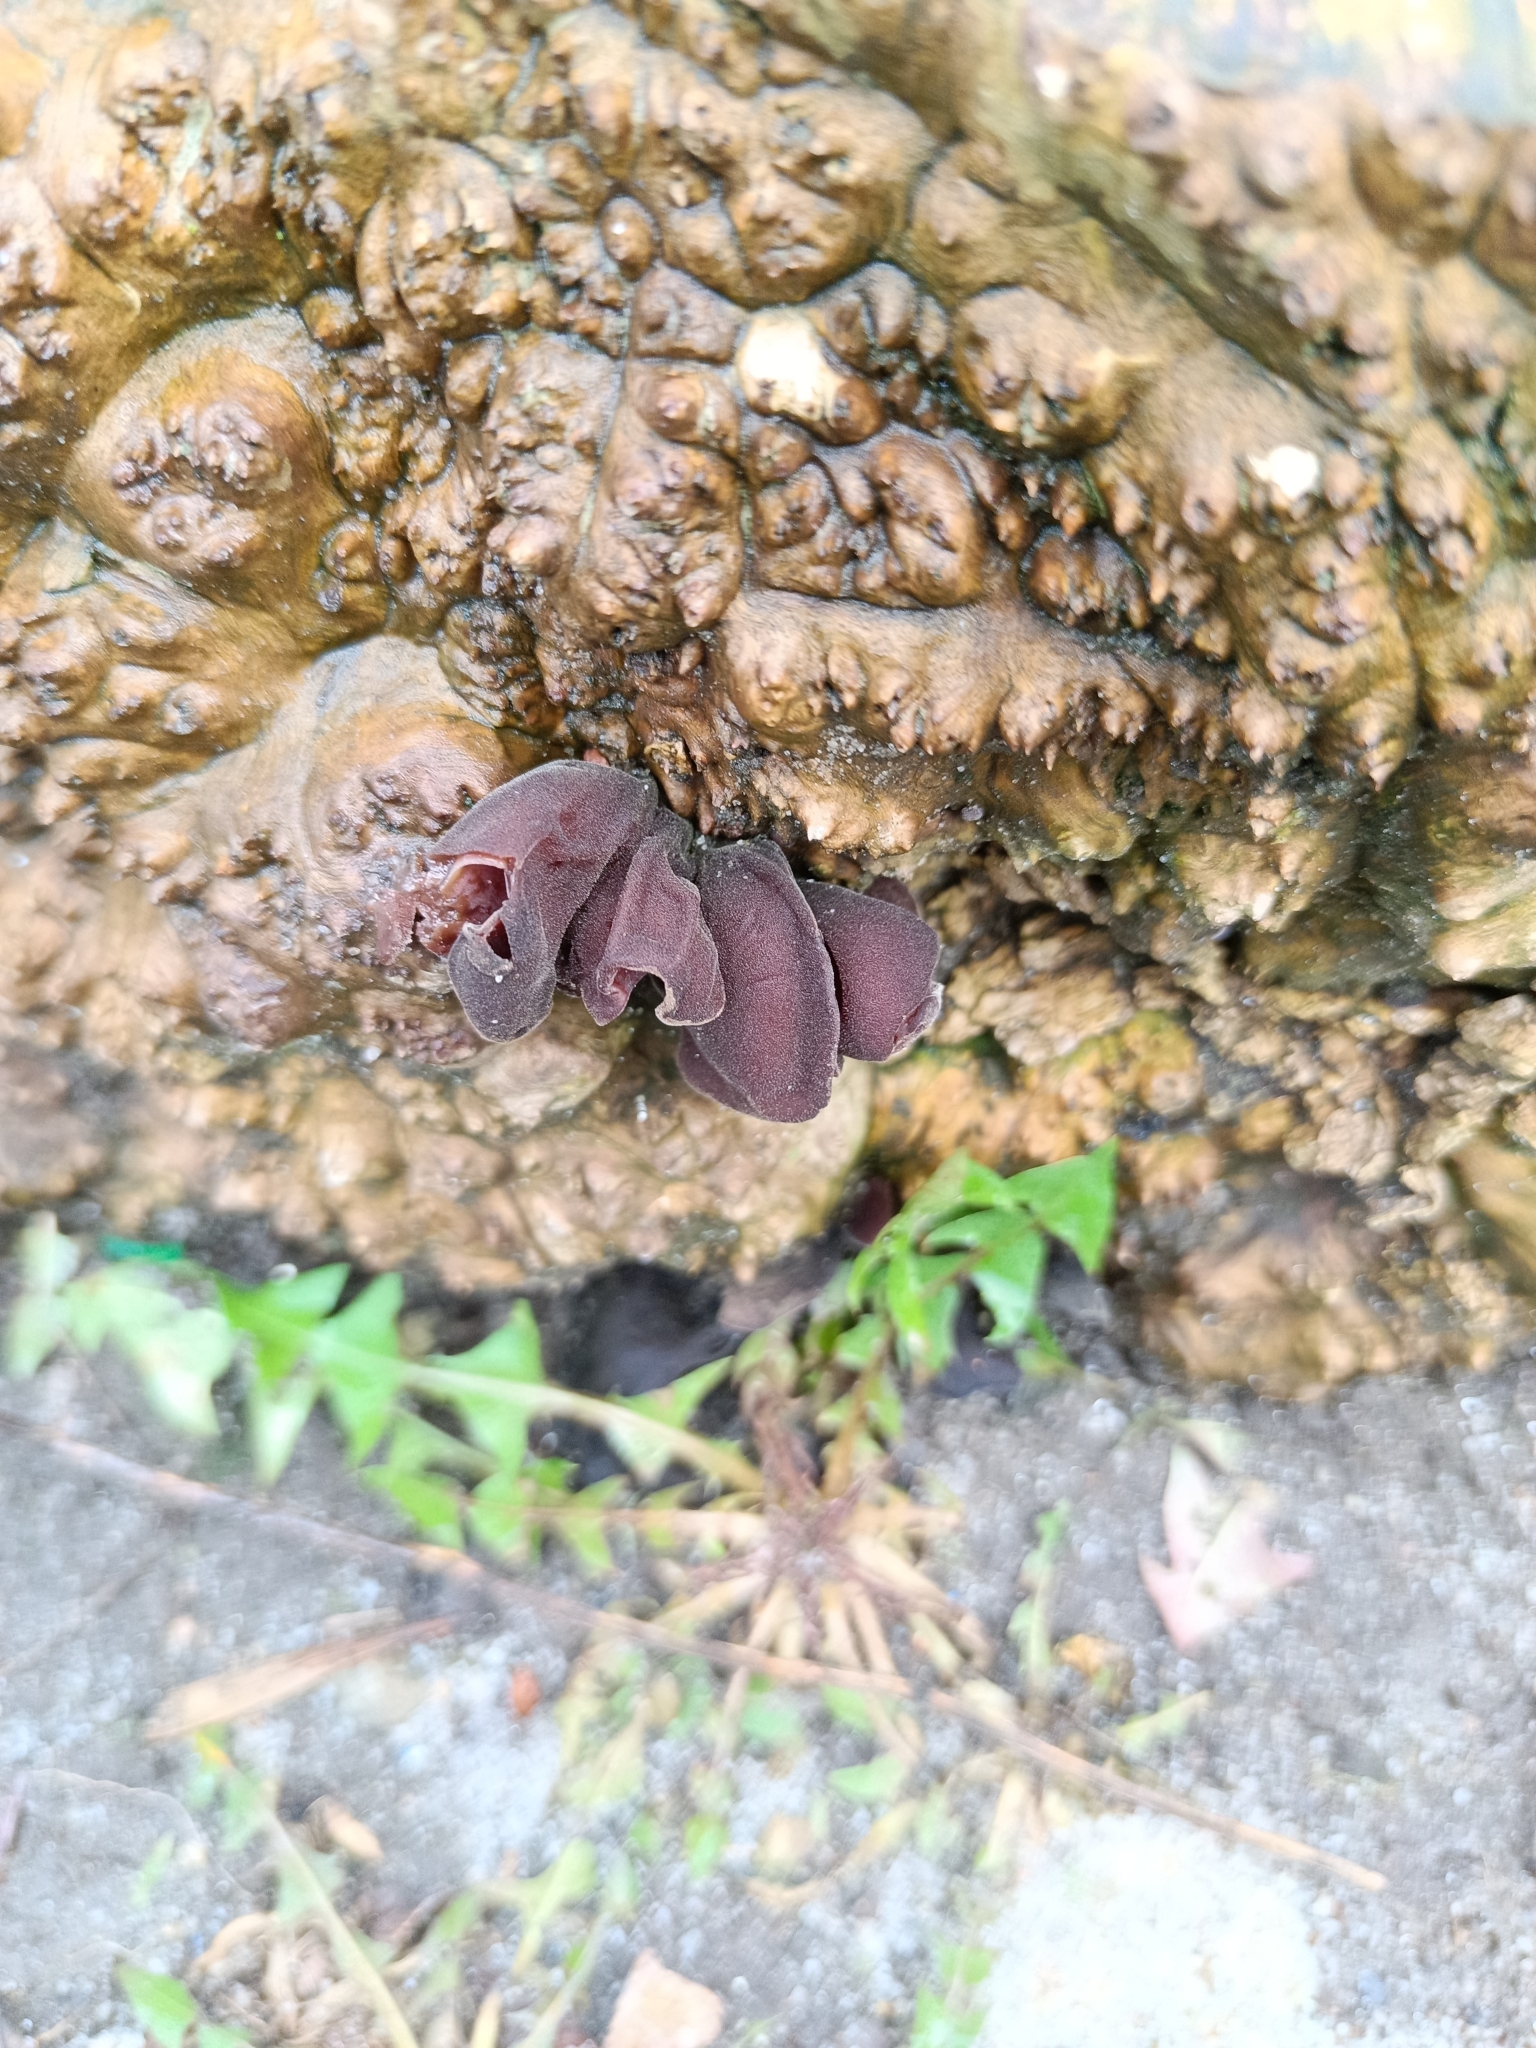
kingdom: Fungi
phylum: Basidiomycota
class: Agaricomycetes
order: Auriculariales
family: Auriculariaceae
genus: Auricularia
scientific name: Auricularia auricula-judae
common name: Jelly ear
